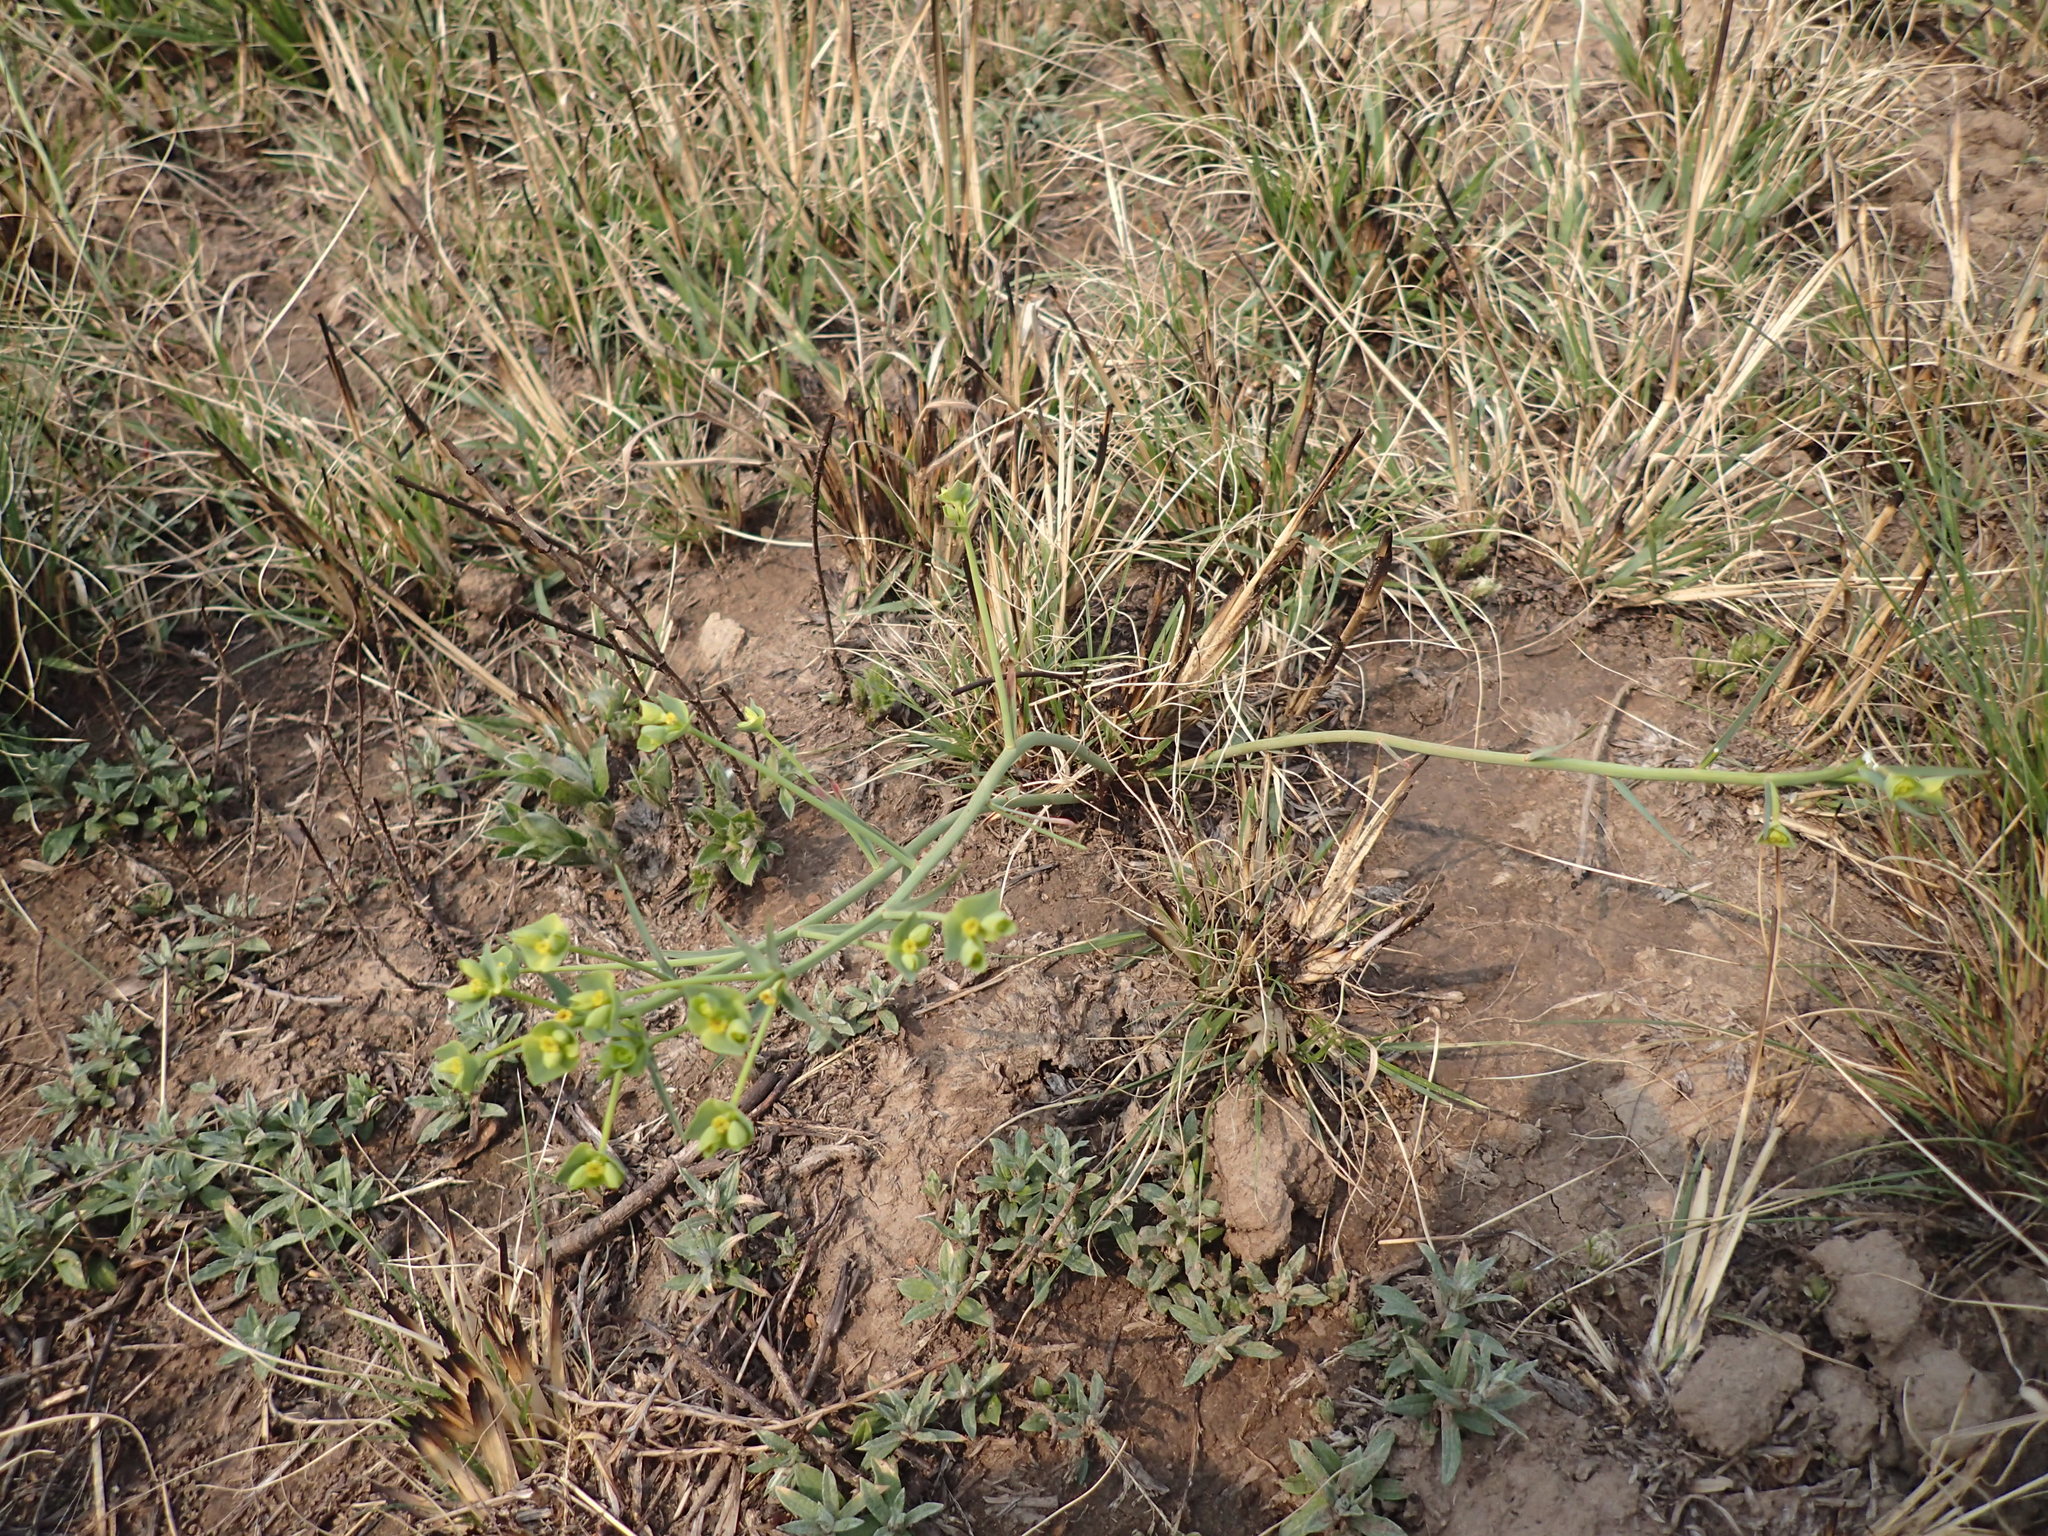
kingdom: Plantae
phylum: Tracheophyta
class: Magnoliopsida
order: Malpighiales
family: Euphorbiaceae
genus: Euphorbia
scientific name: Euphorbia striata
